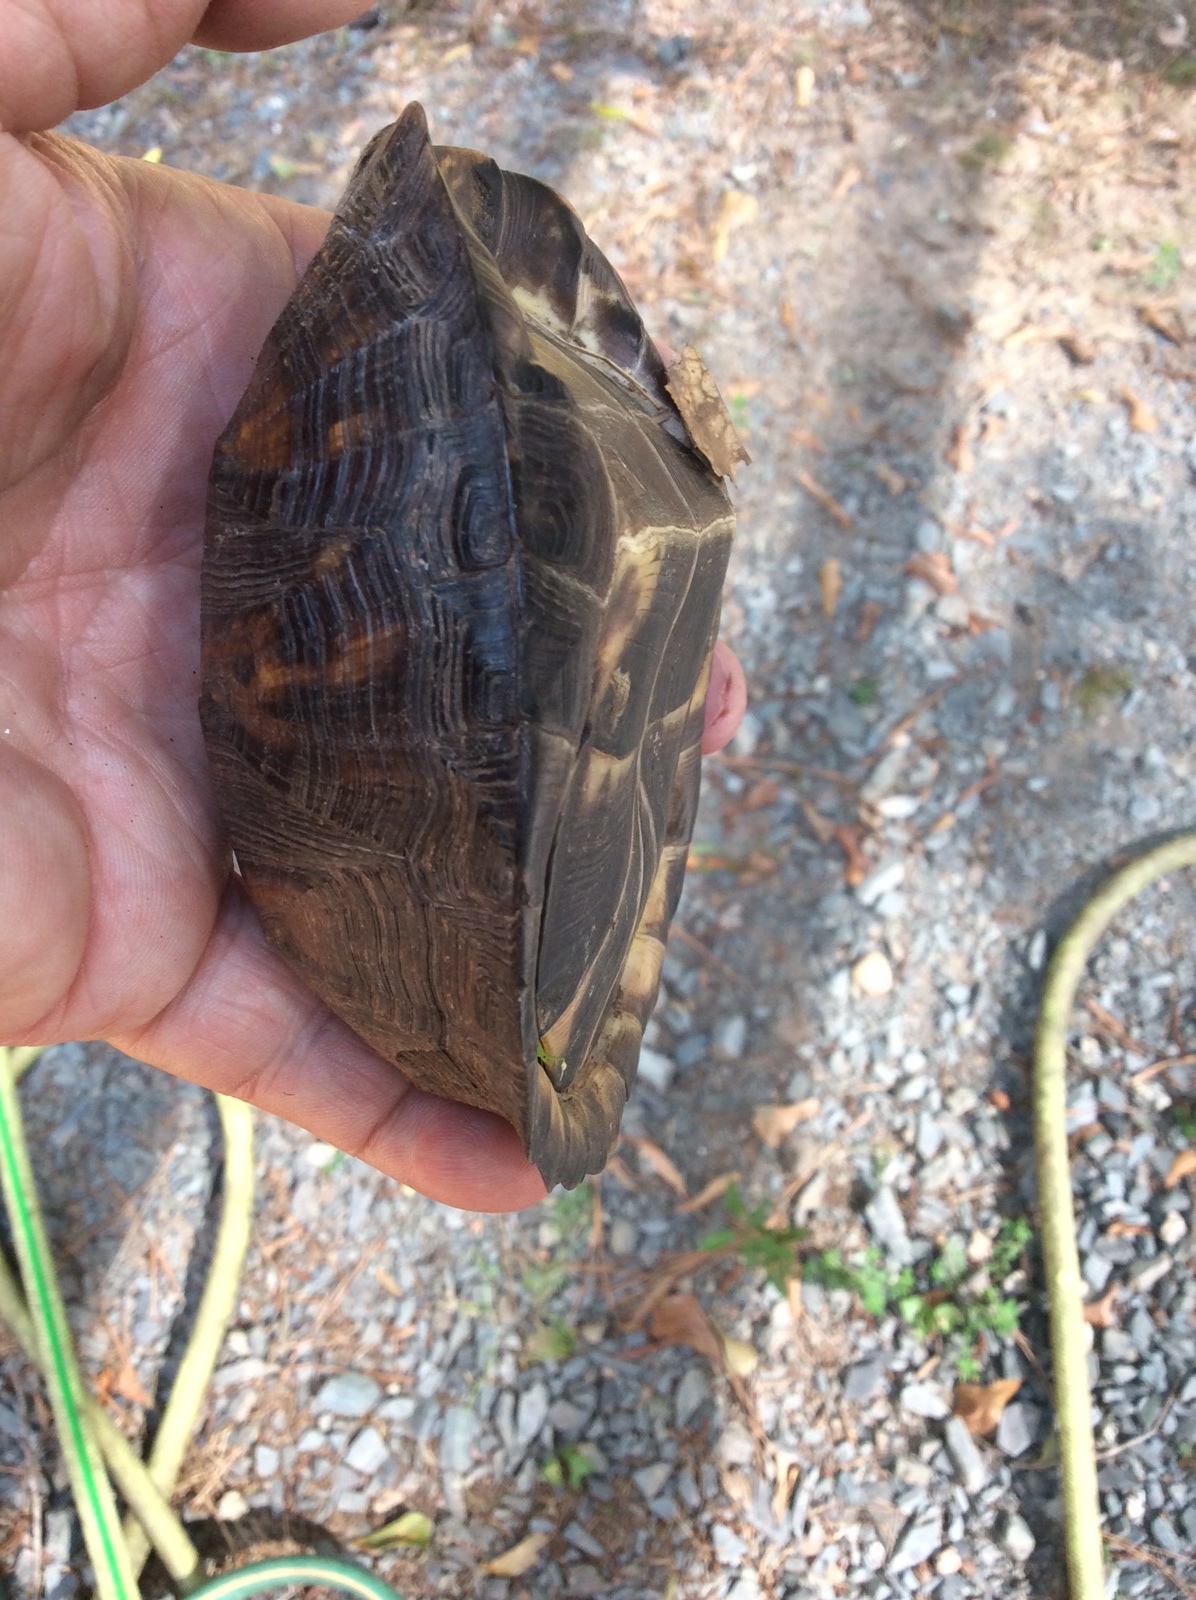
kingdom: Animalia
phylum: Chordata
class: Testudines
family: Emydidae
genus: Terrapene
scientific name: Terrapene carolina
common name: Common box turtle
